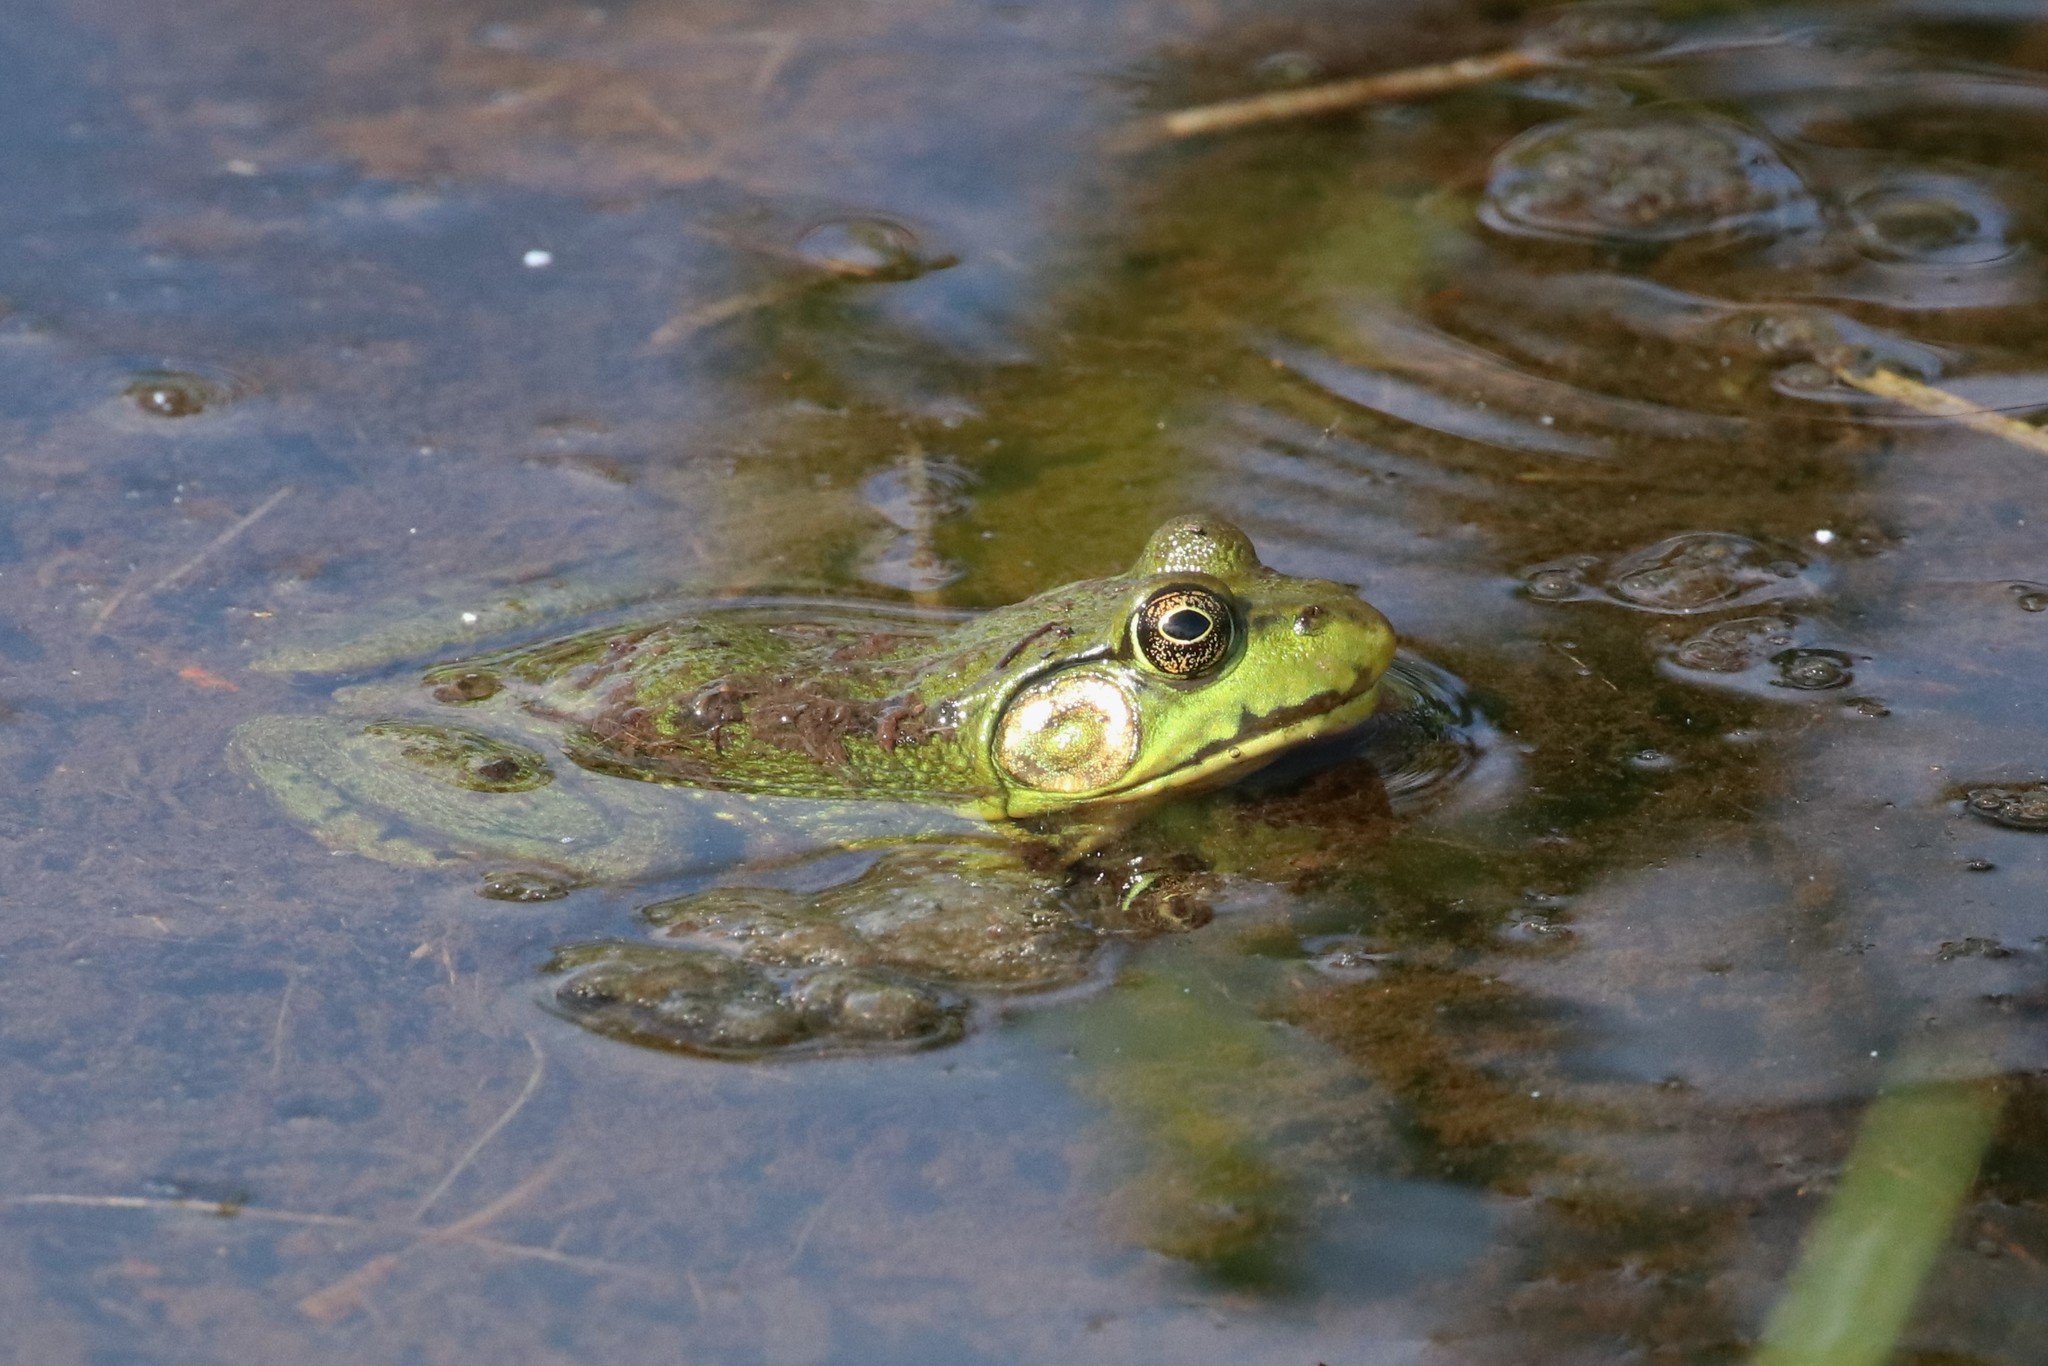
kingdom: Animalia
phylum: Chordata
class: Amphibia
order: Anura
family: Ranidae
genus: Lithobates
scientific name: Lithobates catesbeianus
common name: American bullfrog
